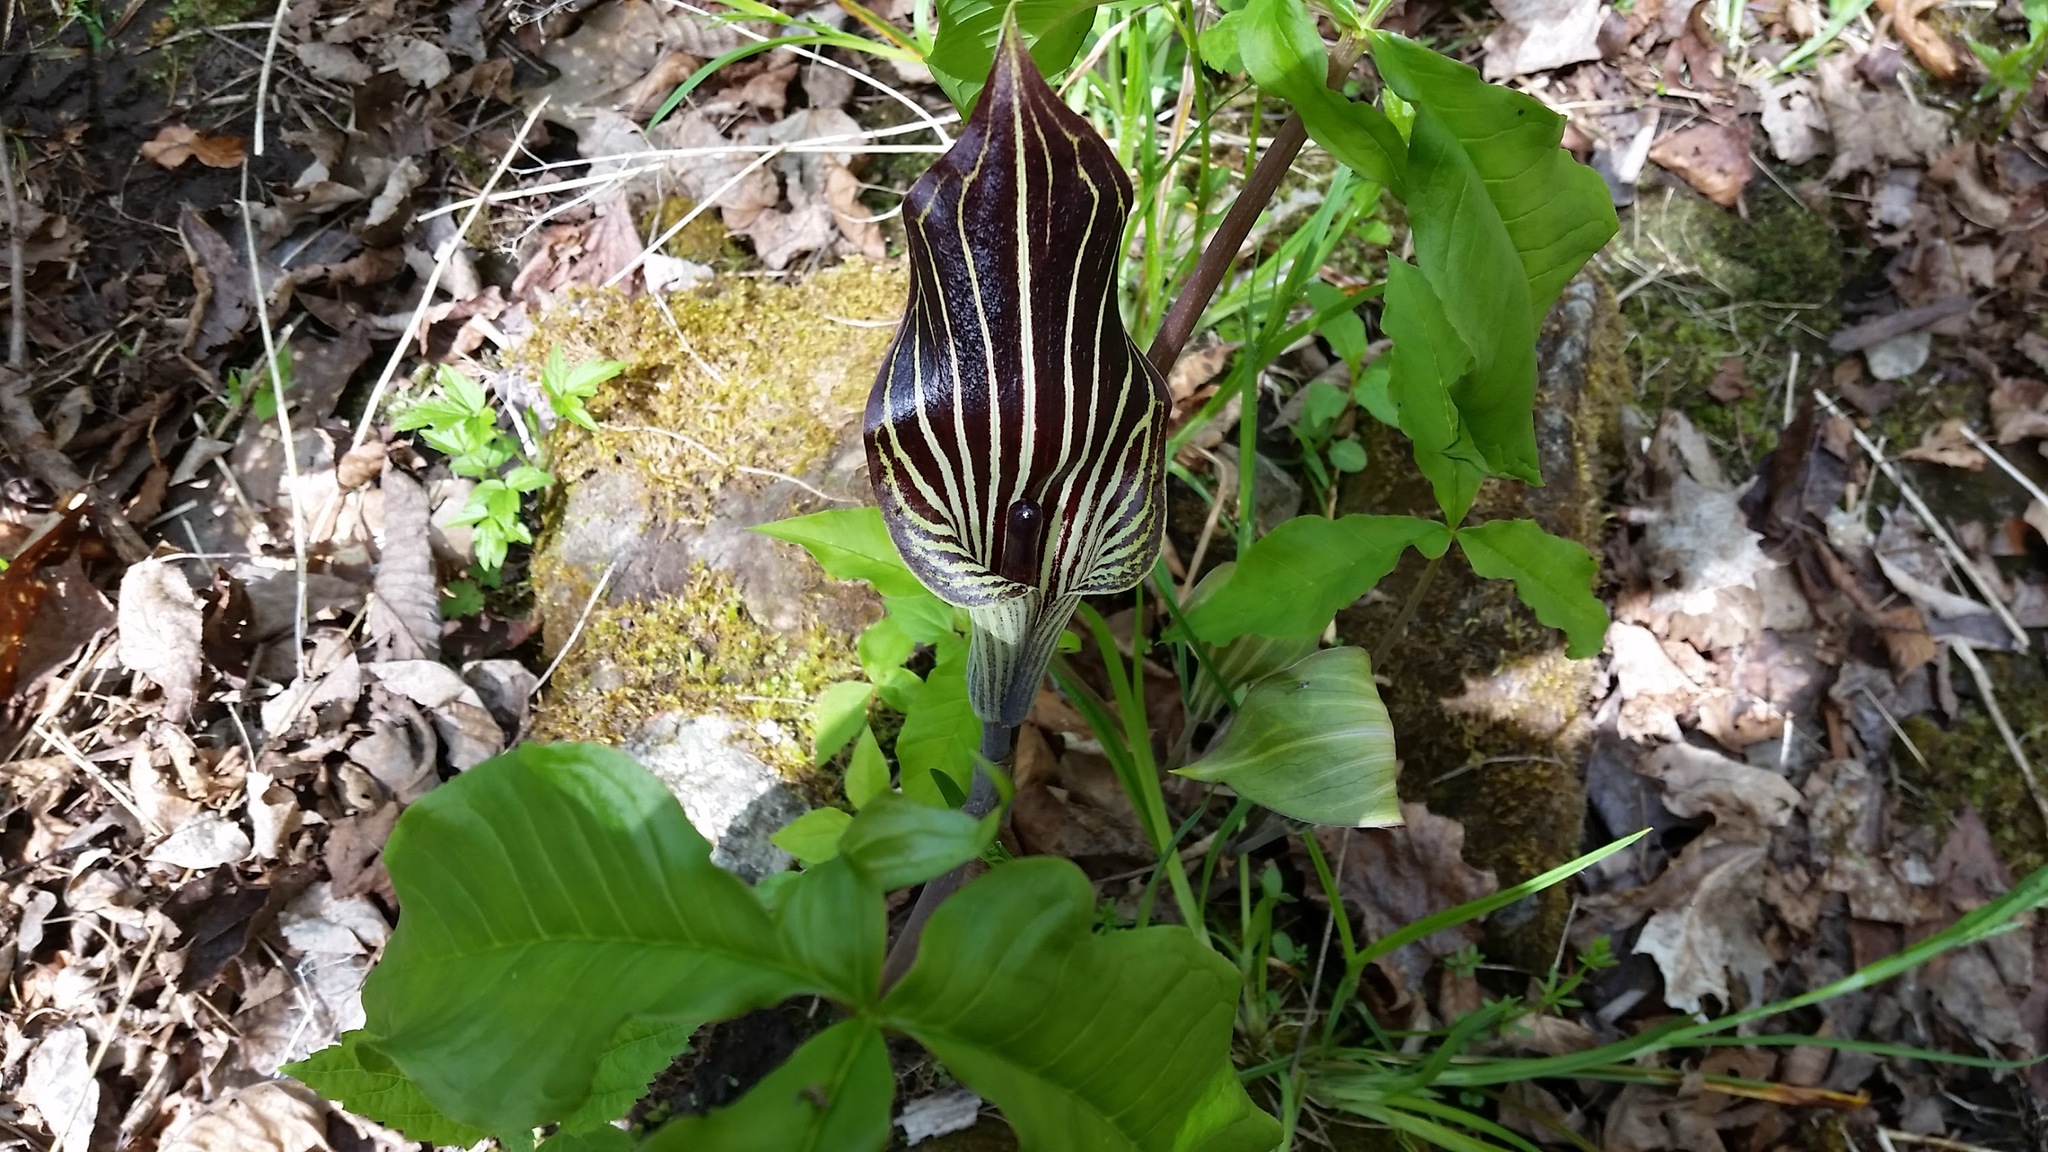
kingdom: Plantae
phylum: Tracheophyta
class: Liliopsida
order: Alismatales
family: Araceae
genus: Arisaema
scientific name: Arisaema triphyllum
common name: Jack-in-the-pulpit
